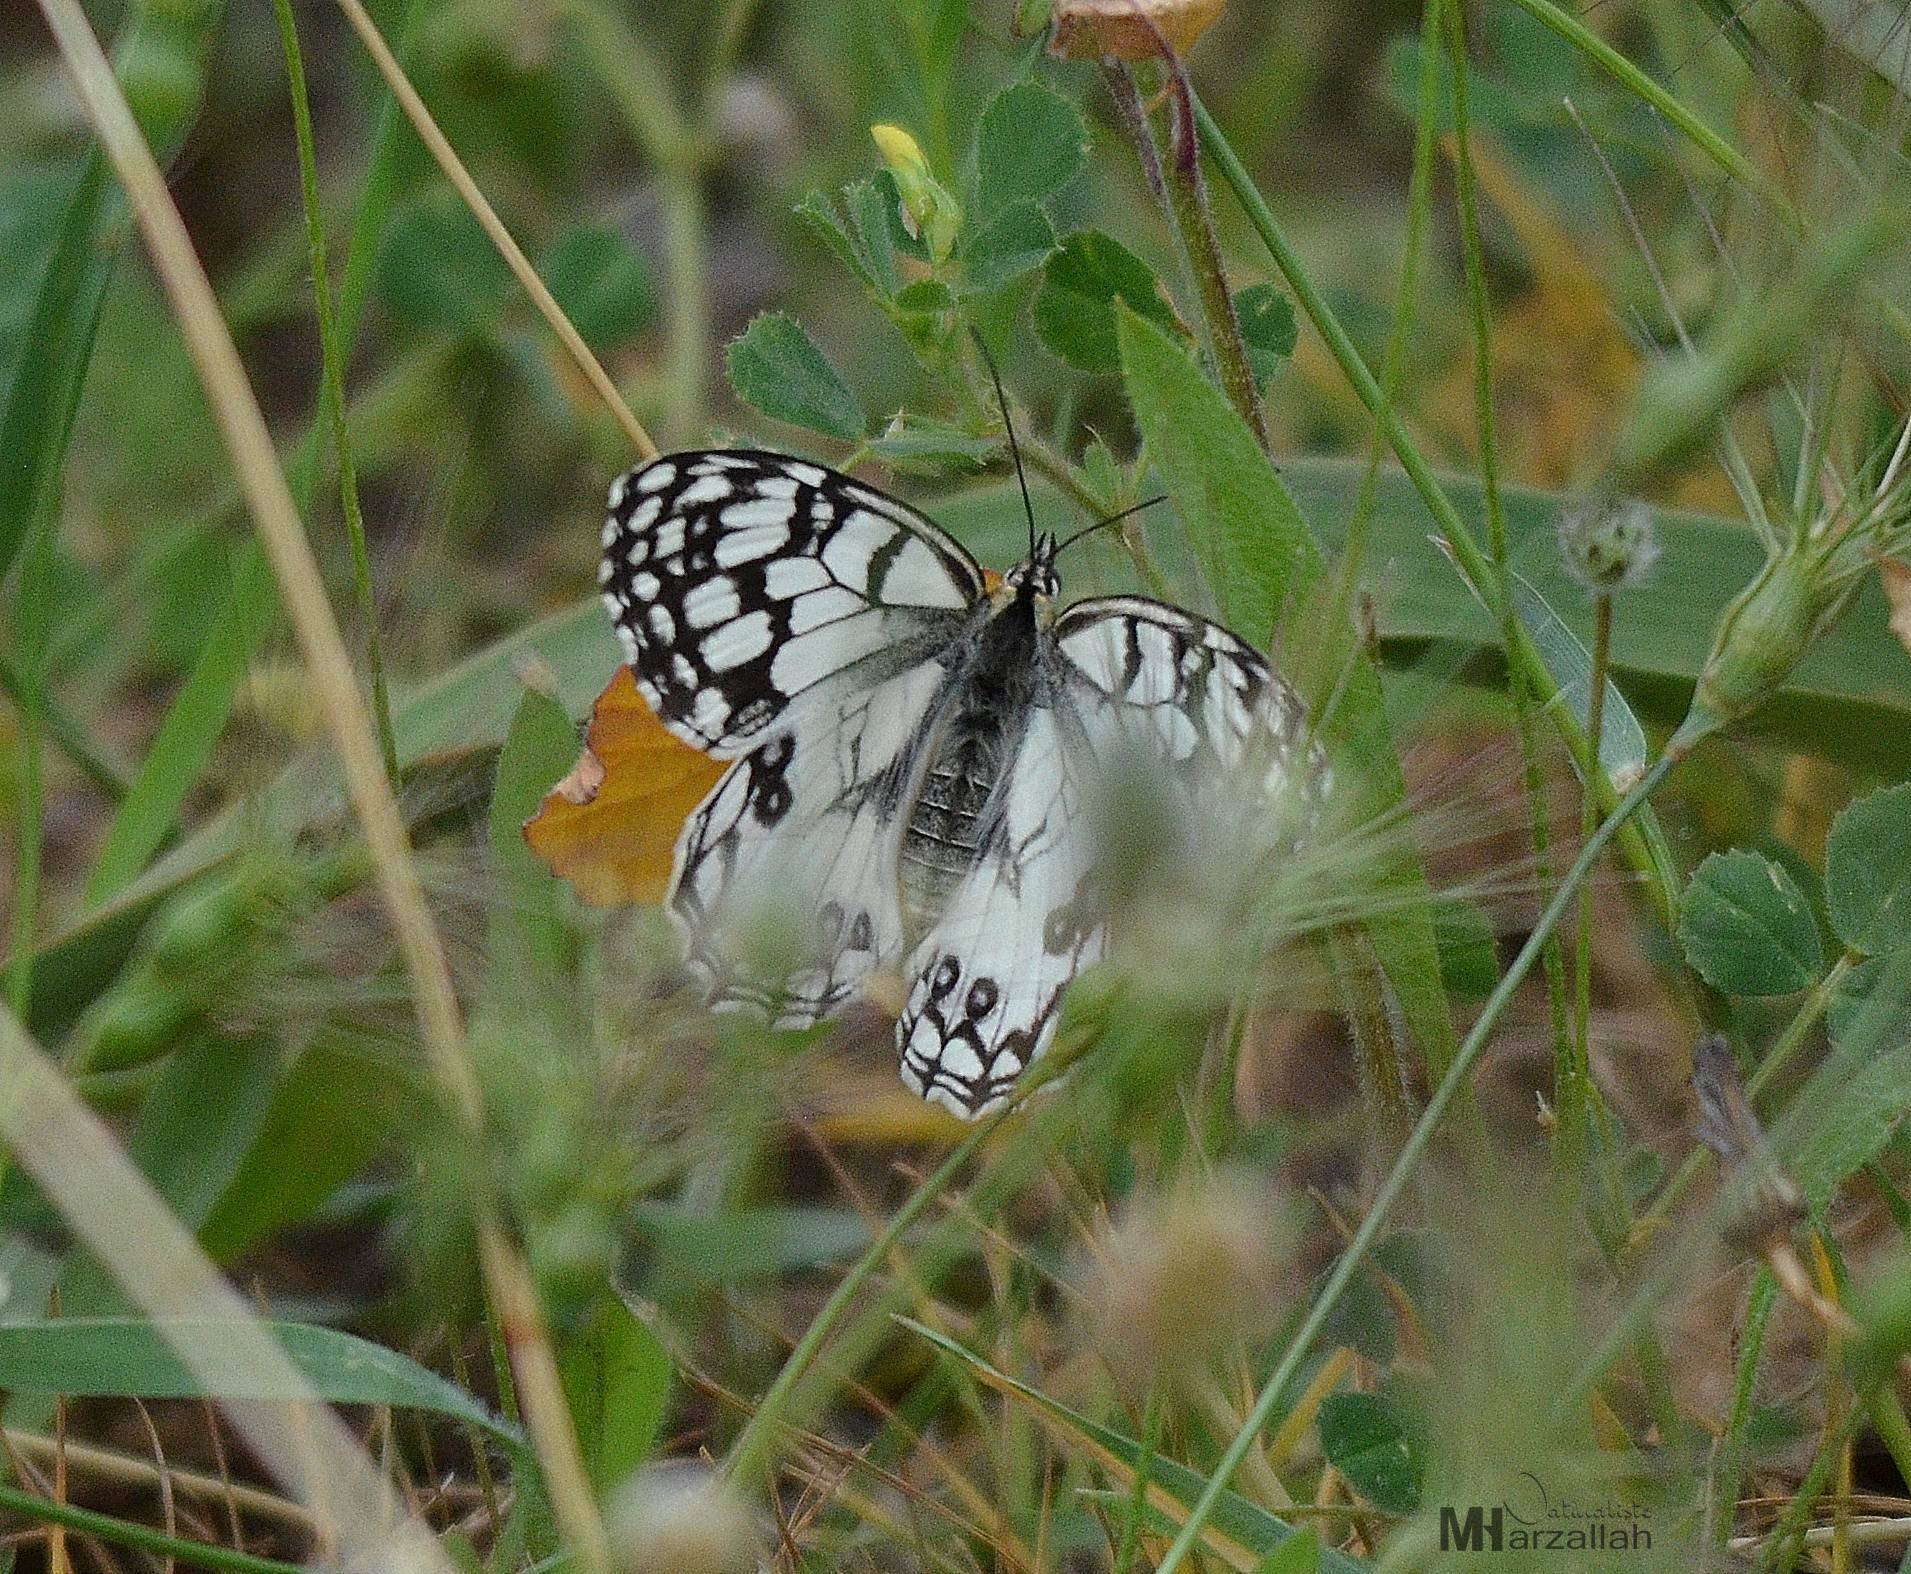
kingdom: Animalia
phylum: Arthropoda
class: Insecta
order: Lepidoptera
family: Nymphalidae
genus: Melanargia
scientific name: Melanargia ines
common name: Spanish marbled white
